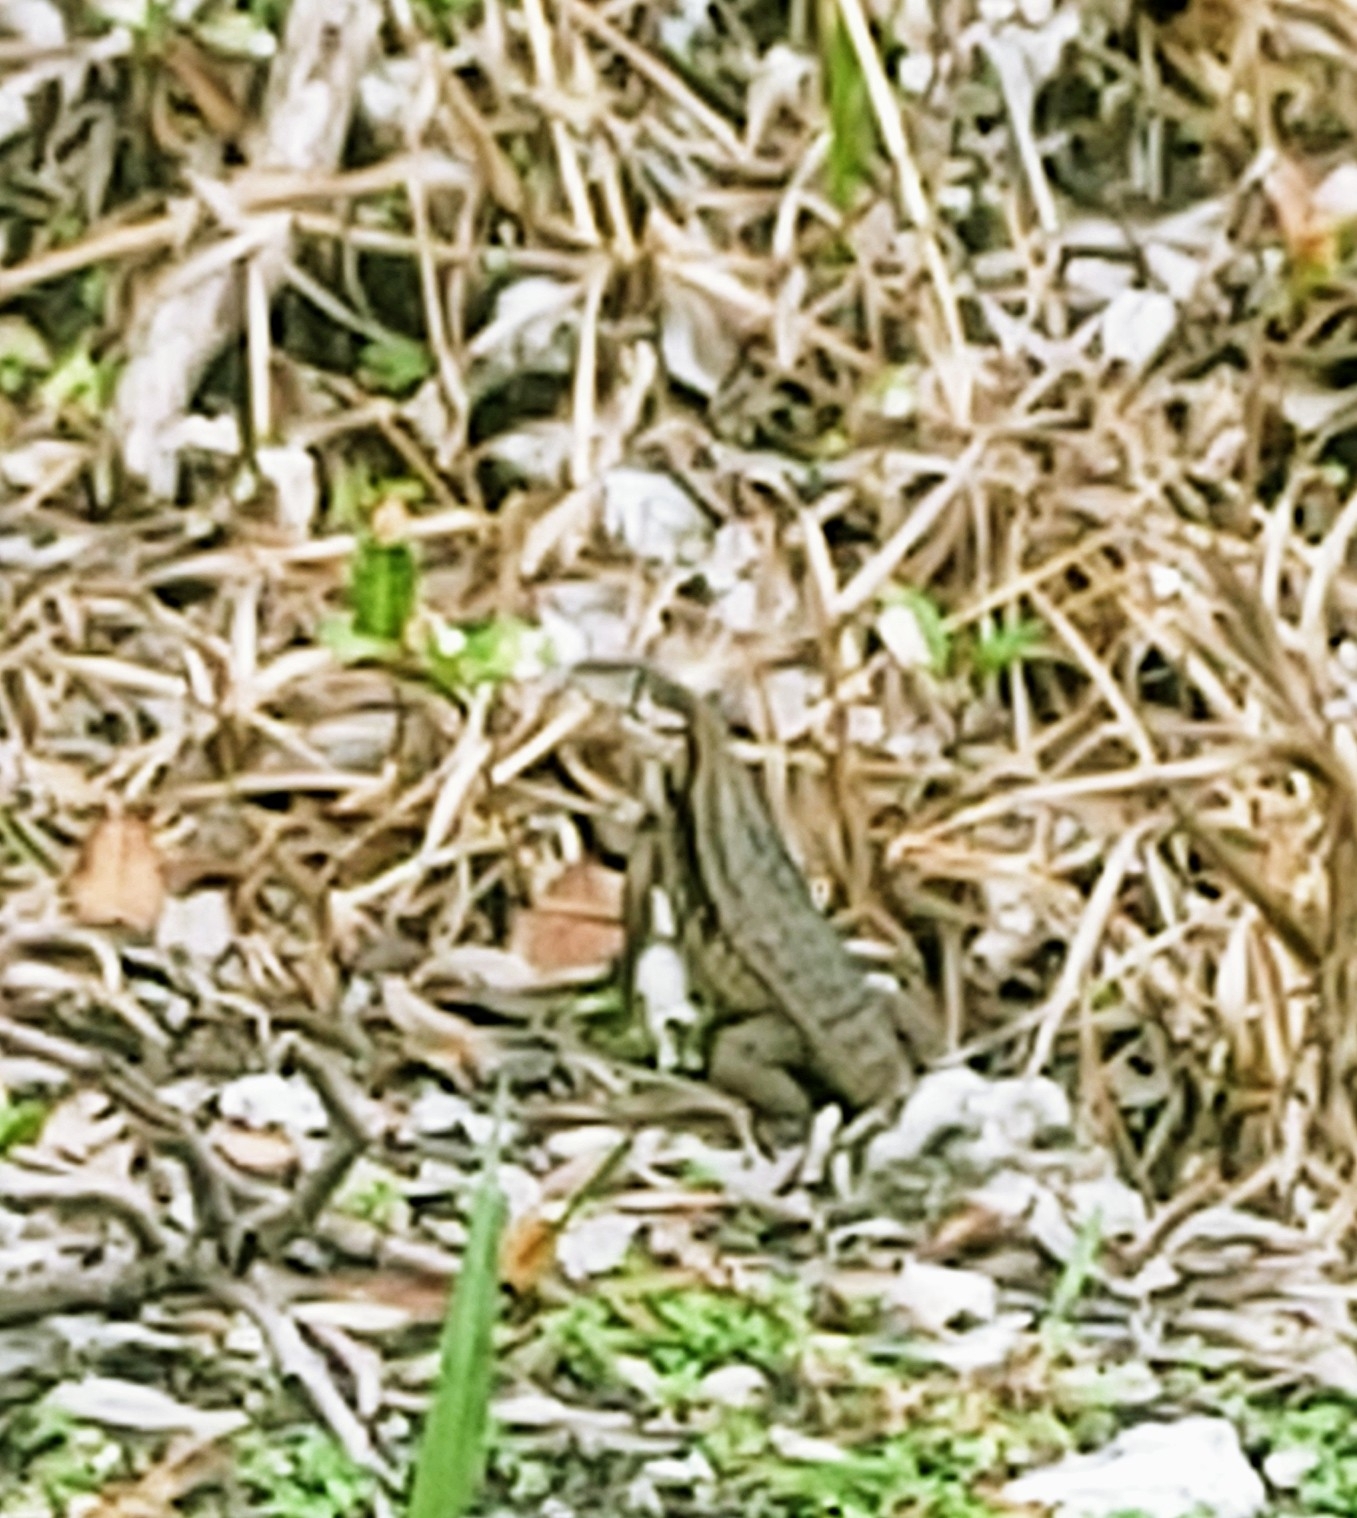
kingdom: Animalia
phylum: Chordata
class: Squamata
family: Leiocephalidae
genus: Leiocephalus
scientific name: Leiocephalus carinatus
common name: Northern curly-tailed lizard
